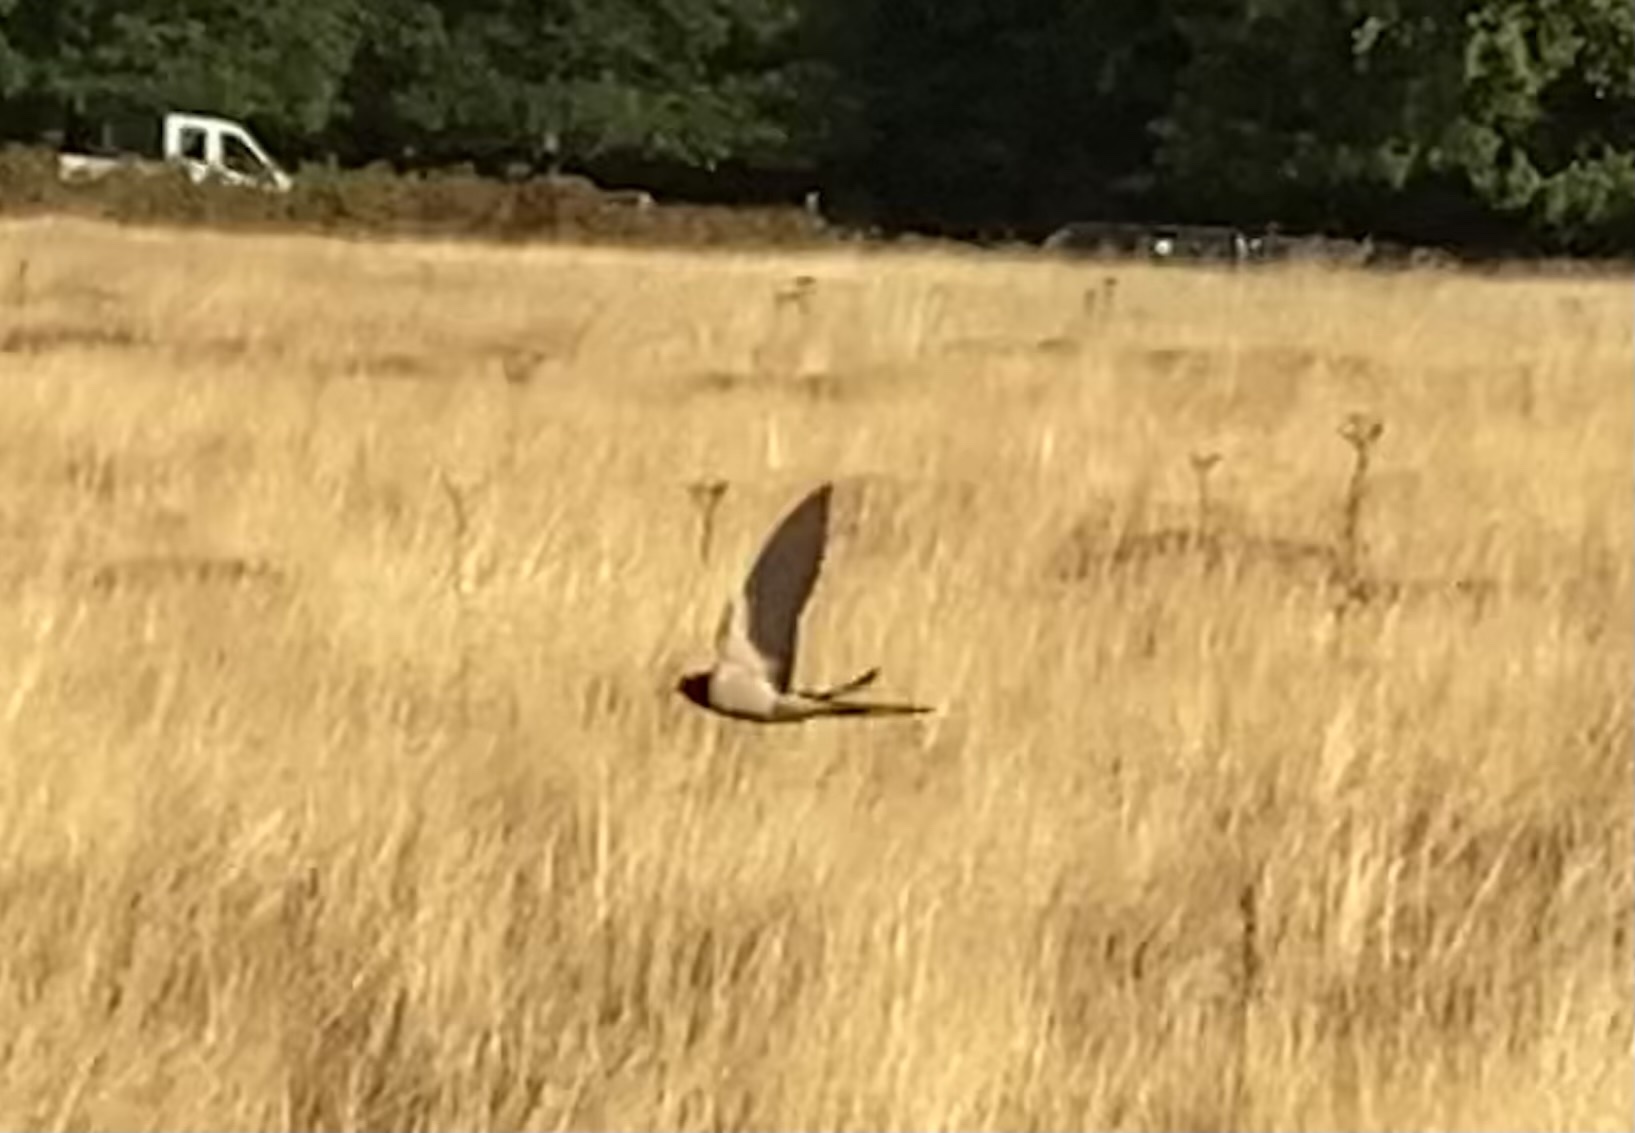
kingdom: Animalia
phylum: Chordata
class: Aves
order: Passeriformes
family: Hirundinidae
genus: Hirundo
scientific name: Hirundo rustica
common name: Barn swallow
